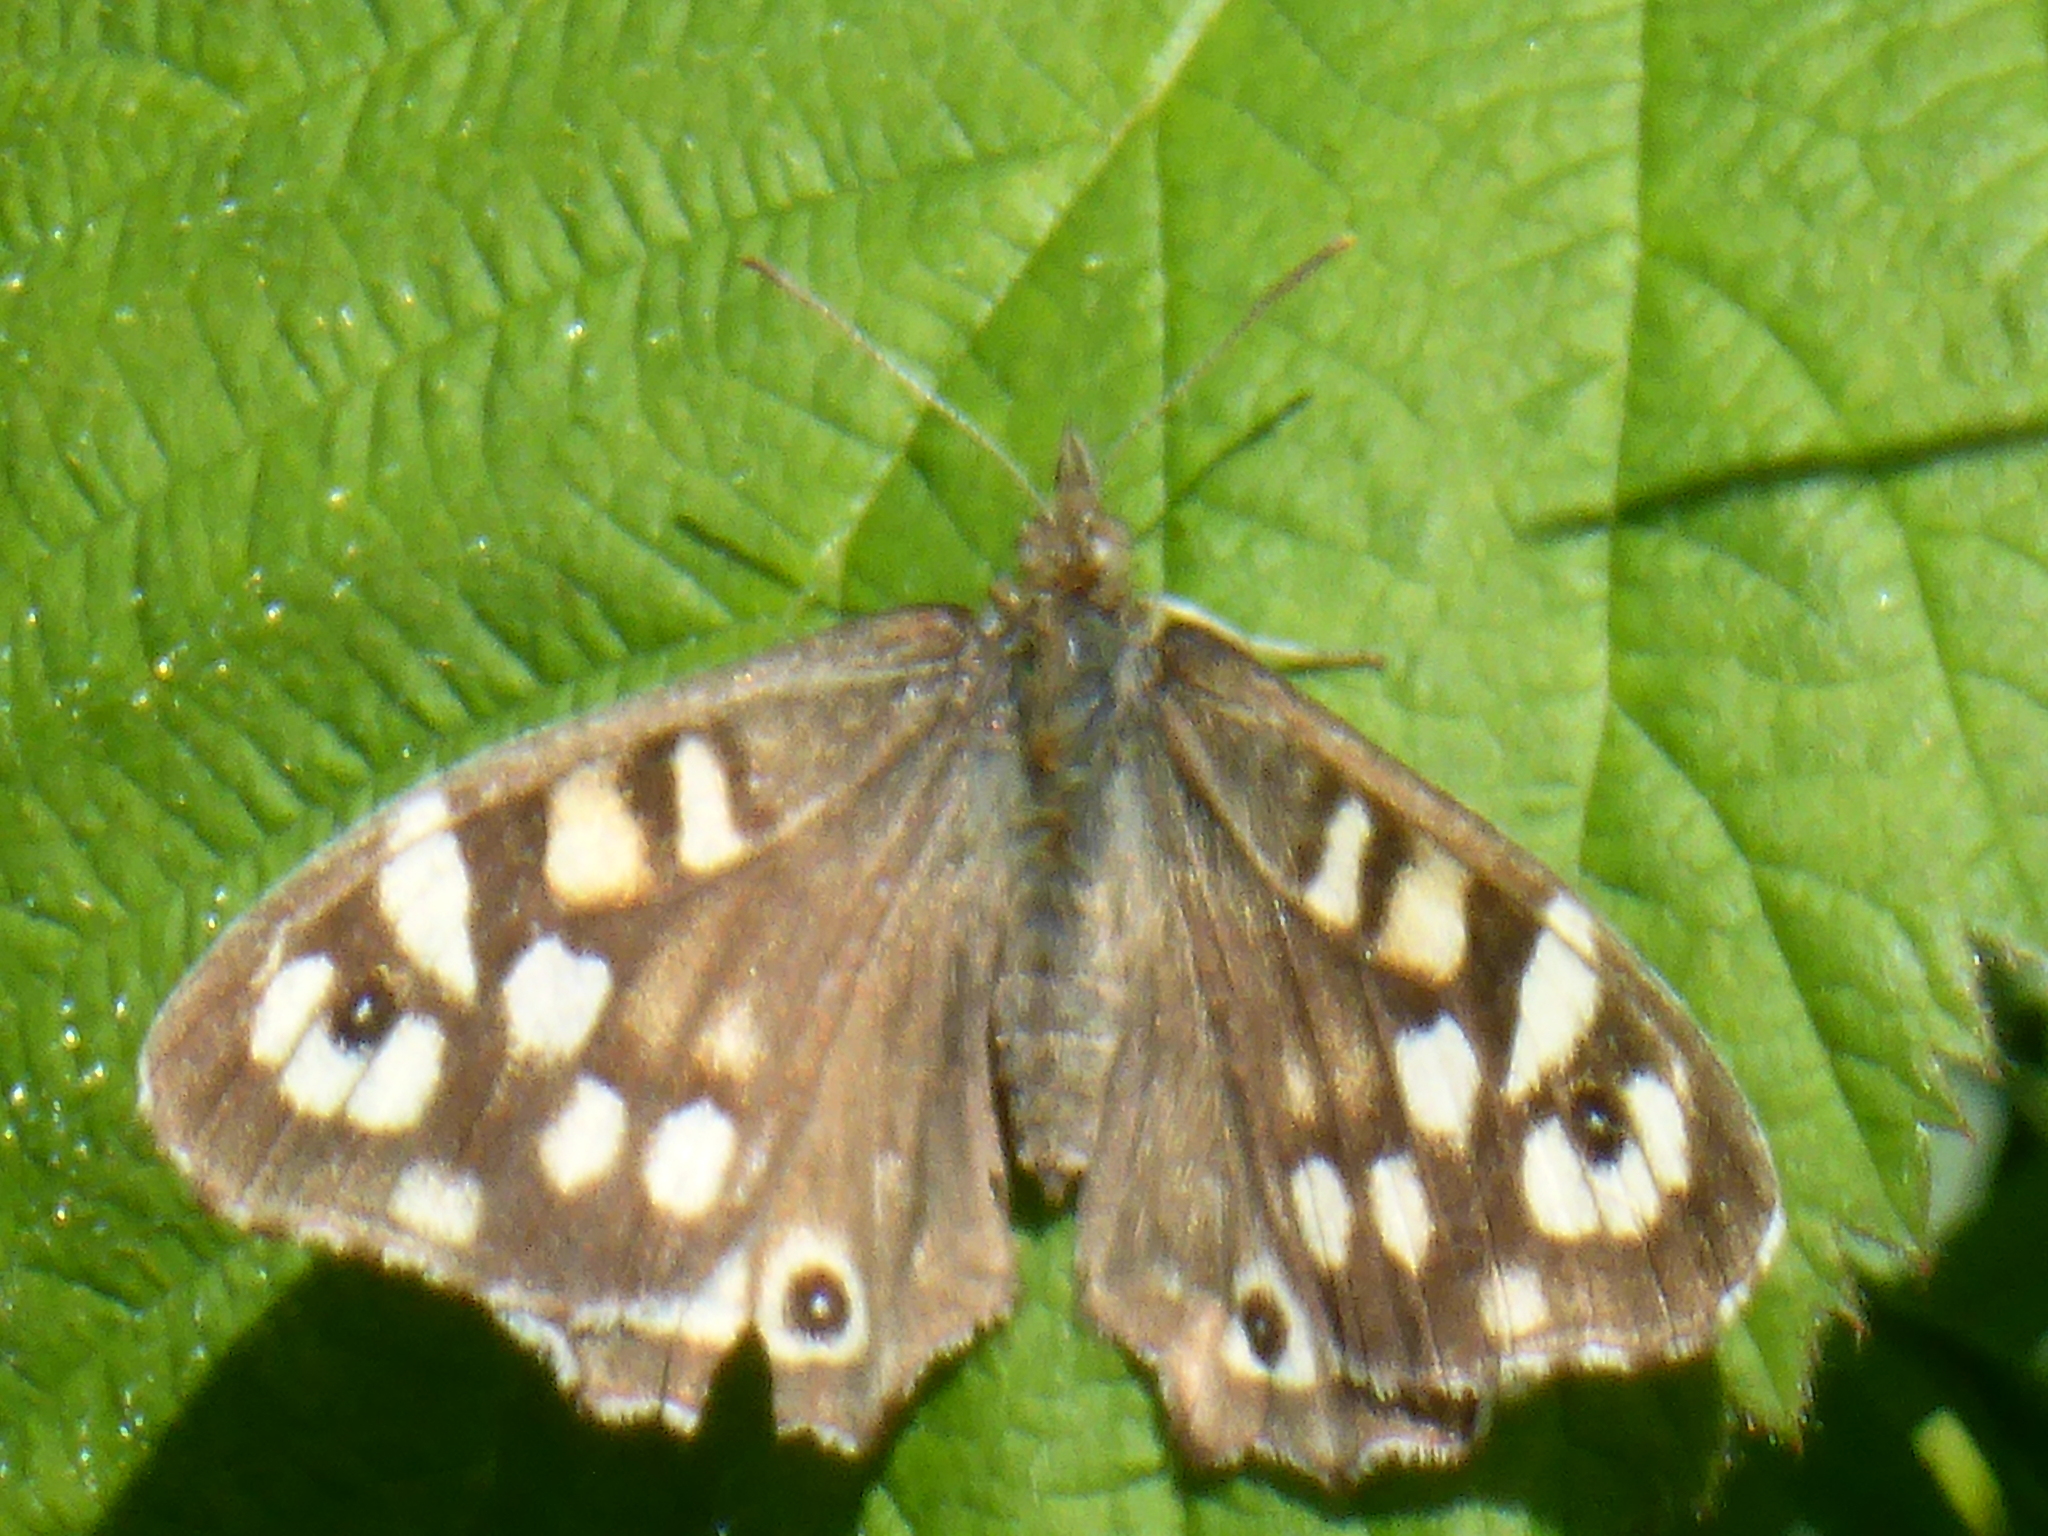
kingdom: Animalia
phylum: Arthropoda
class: Insecta
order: Lepidoptera
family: Nymphalidae
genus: Pararge
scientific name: Pararge aegeria
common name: Speckled wood
